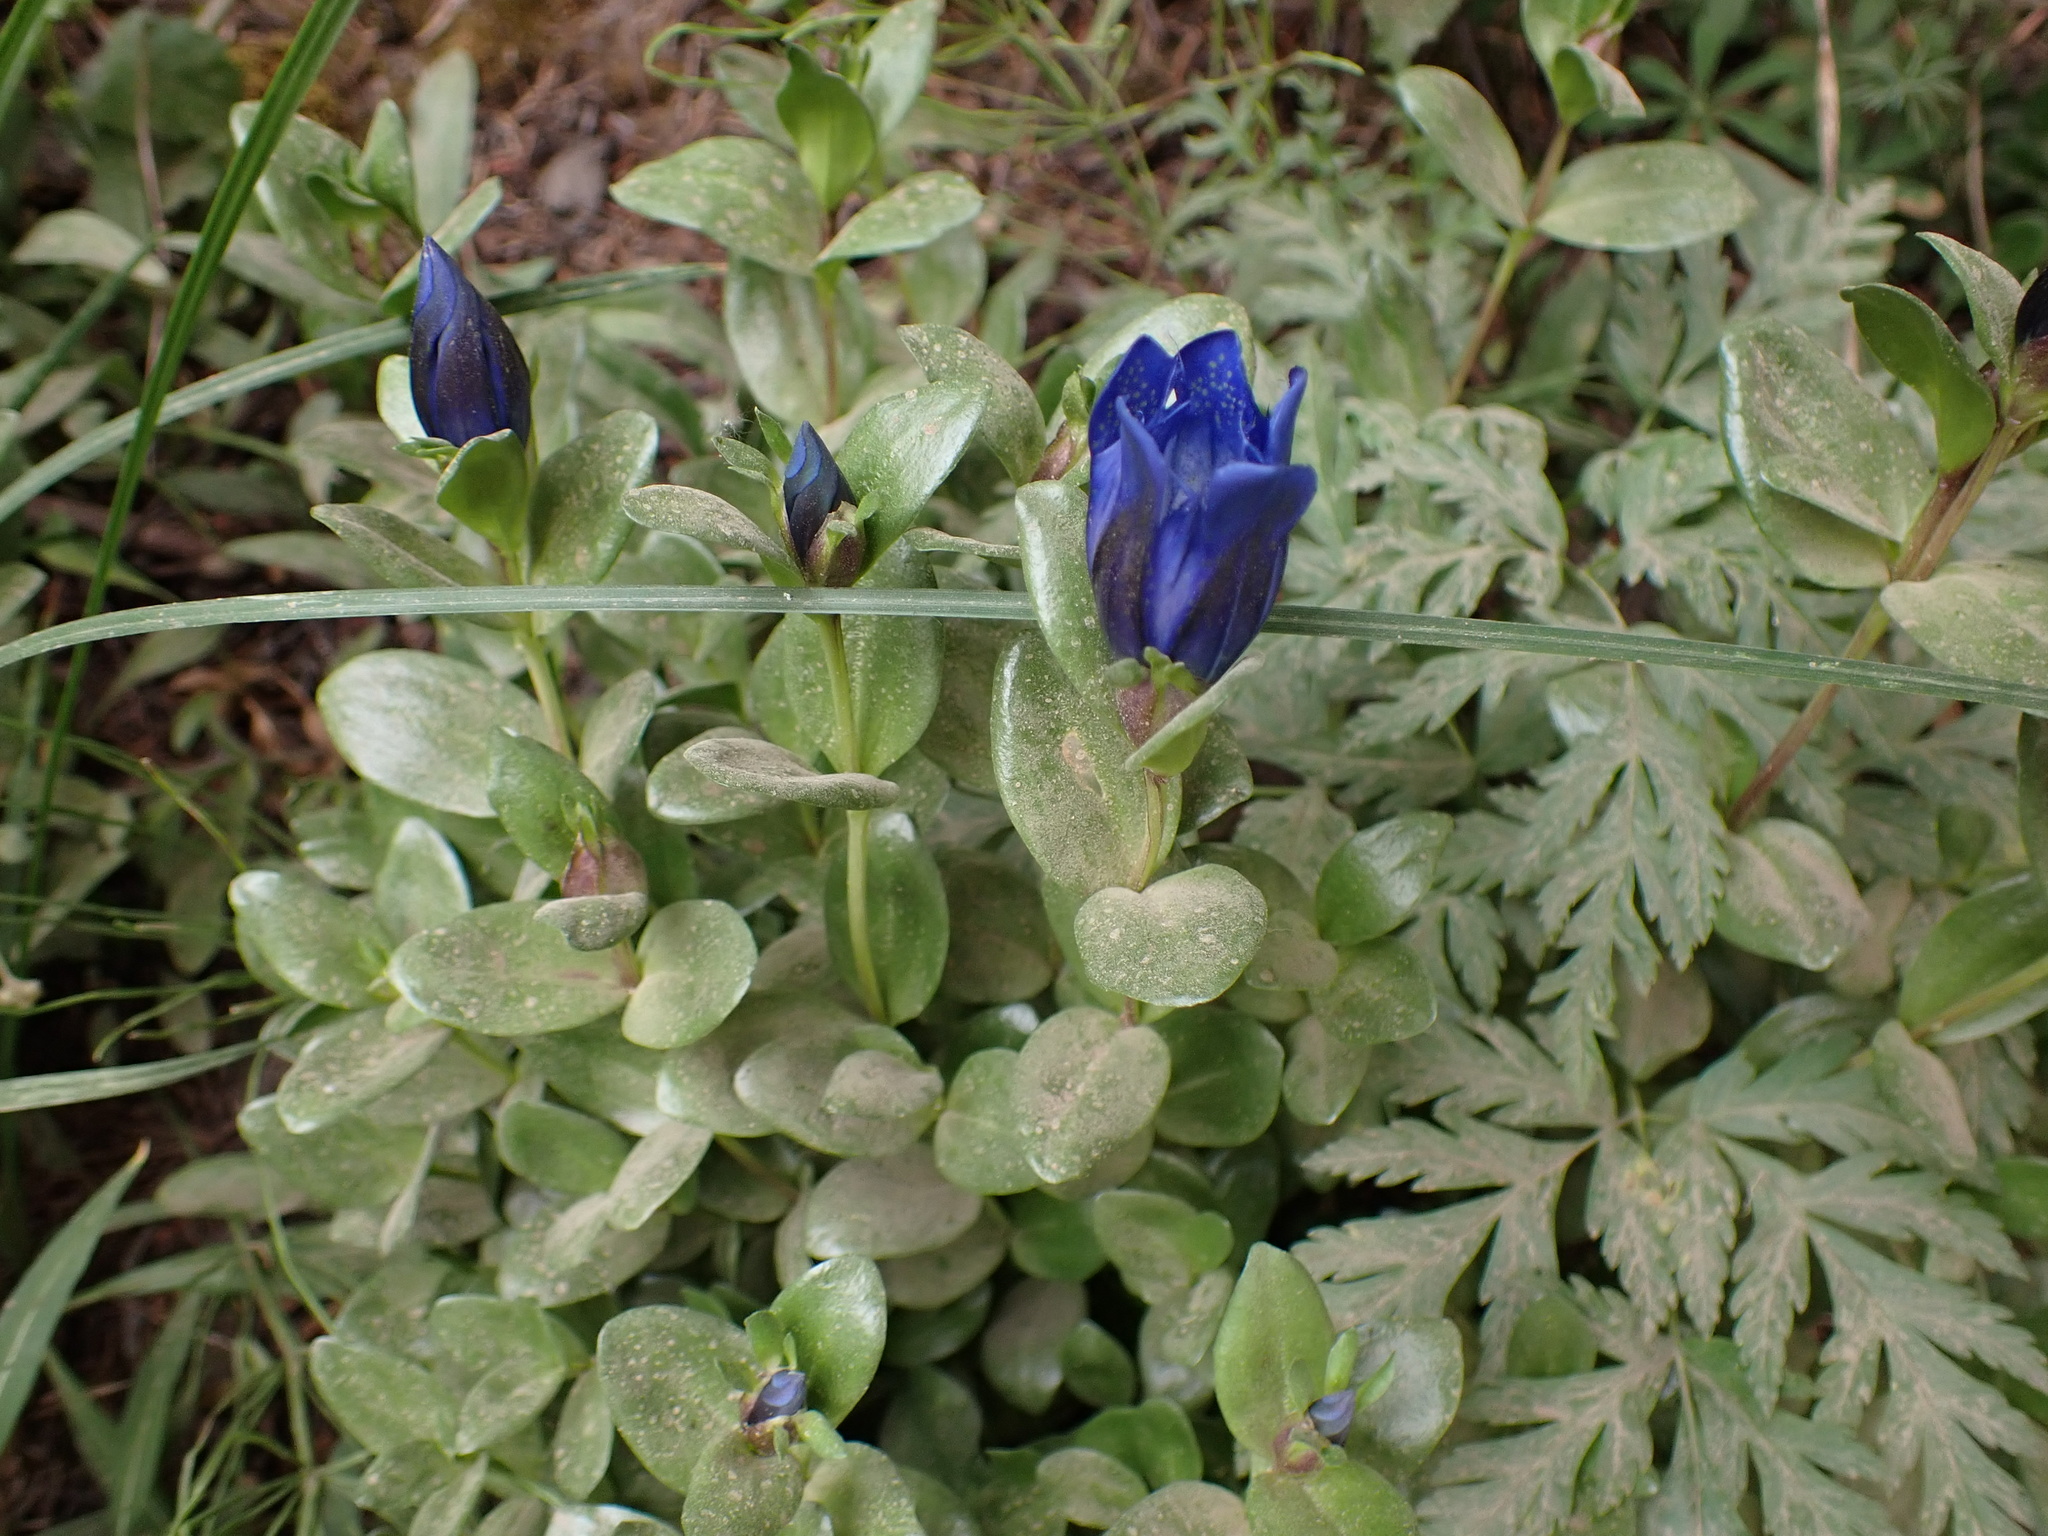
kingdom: Plantae
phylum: Tracheophyta
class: Magnoliopsida
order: Gentianales
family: Gentianaceae
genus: Gentiana
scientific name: Gentiana calycosa
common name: Rainier pleated gentian
